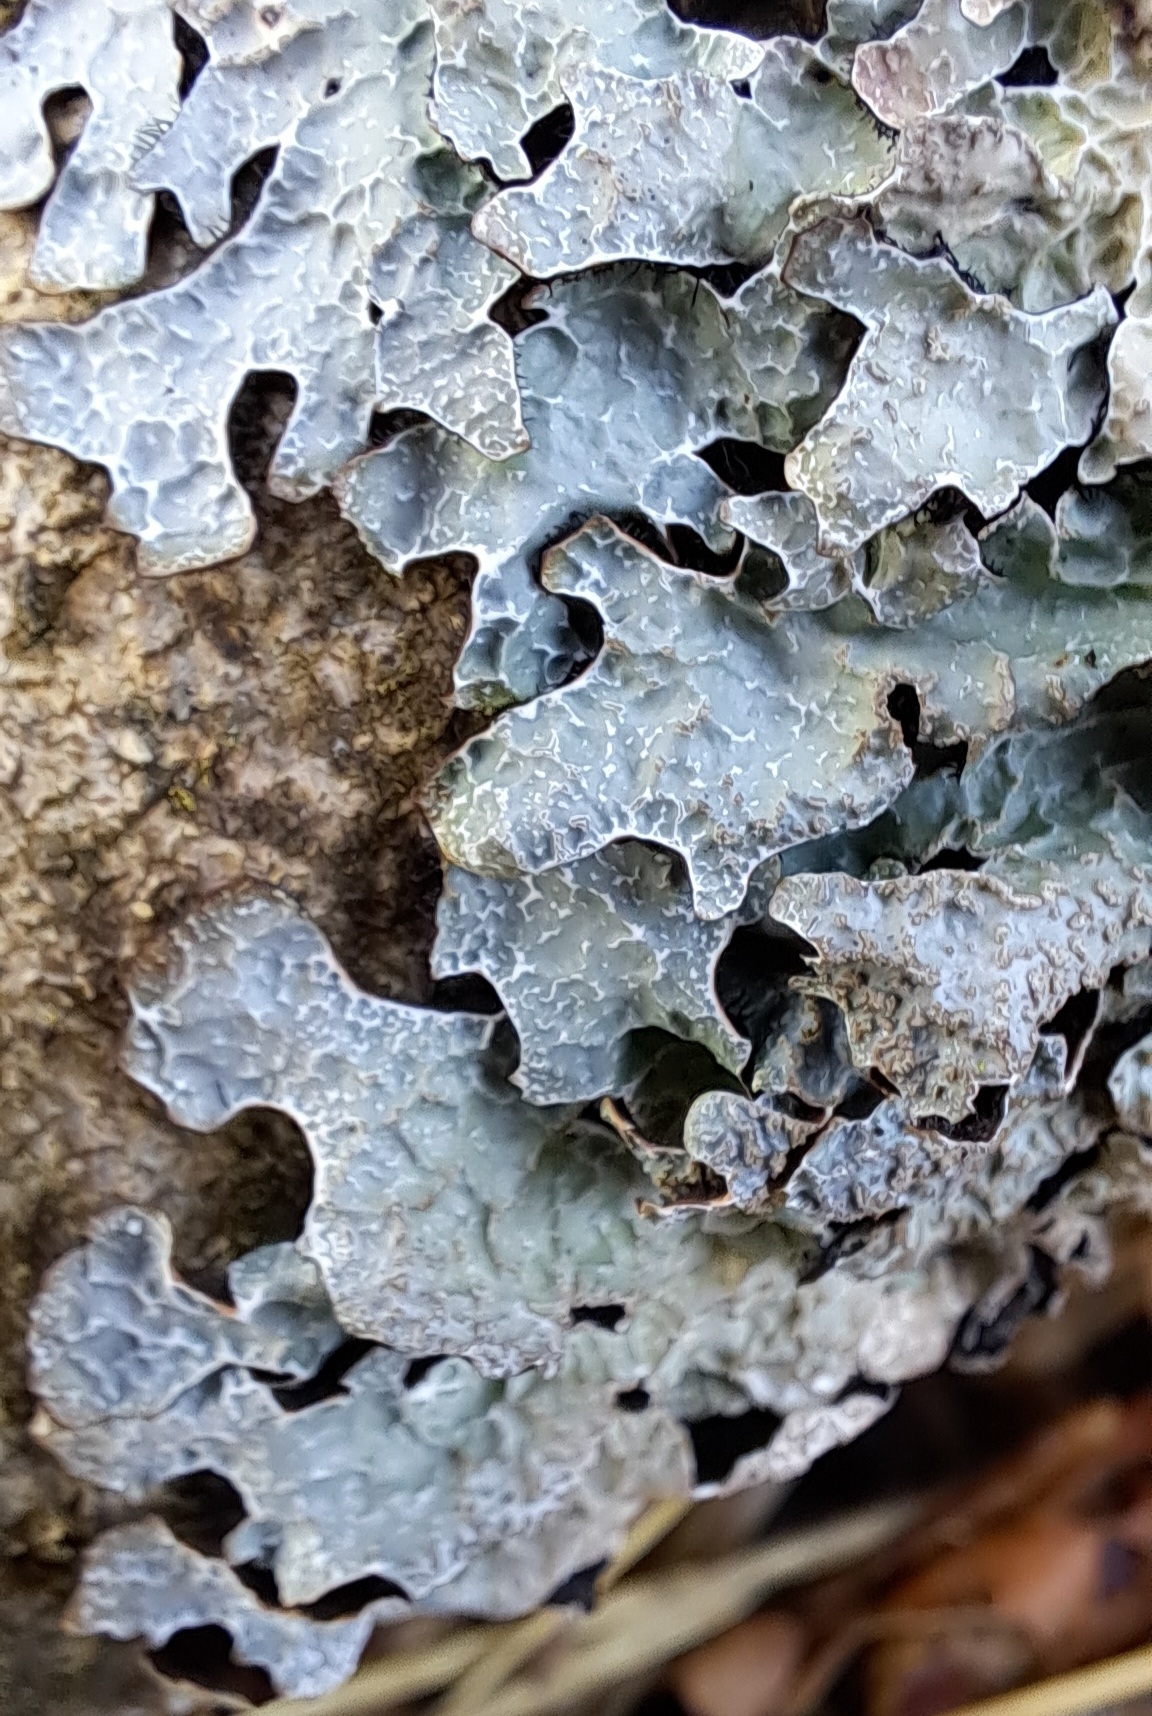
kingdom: Fungi
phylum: Ascomycota
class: Lecanoromycetes
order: Lecanorales
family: Parmeliaceae
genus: Parmelia
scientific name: Parmelia sulcata
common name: Netted shield lichen
